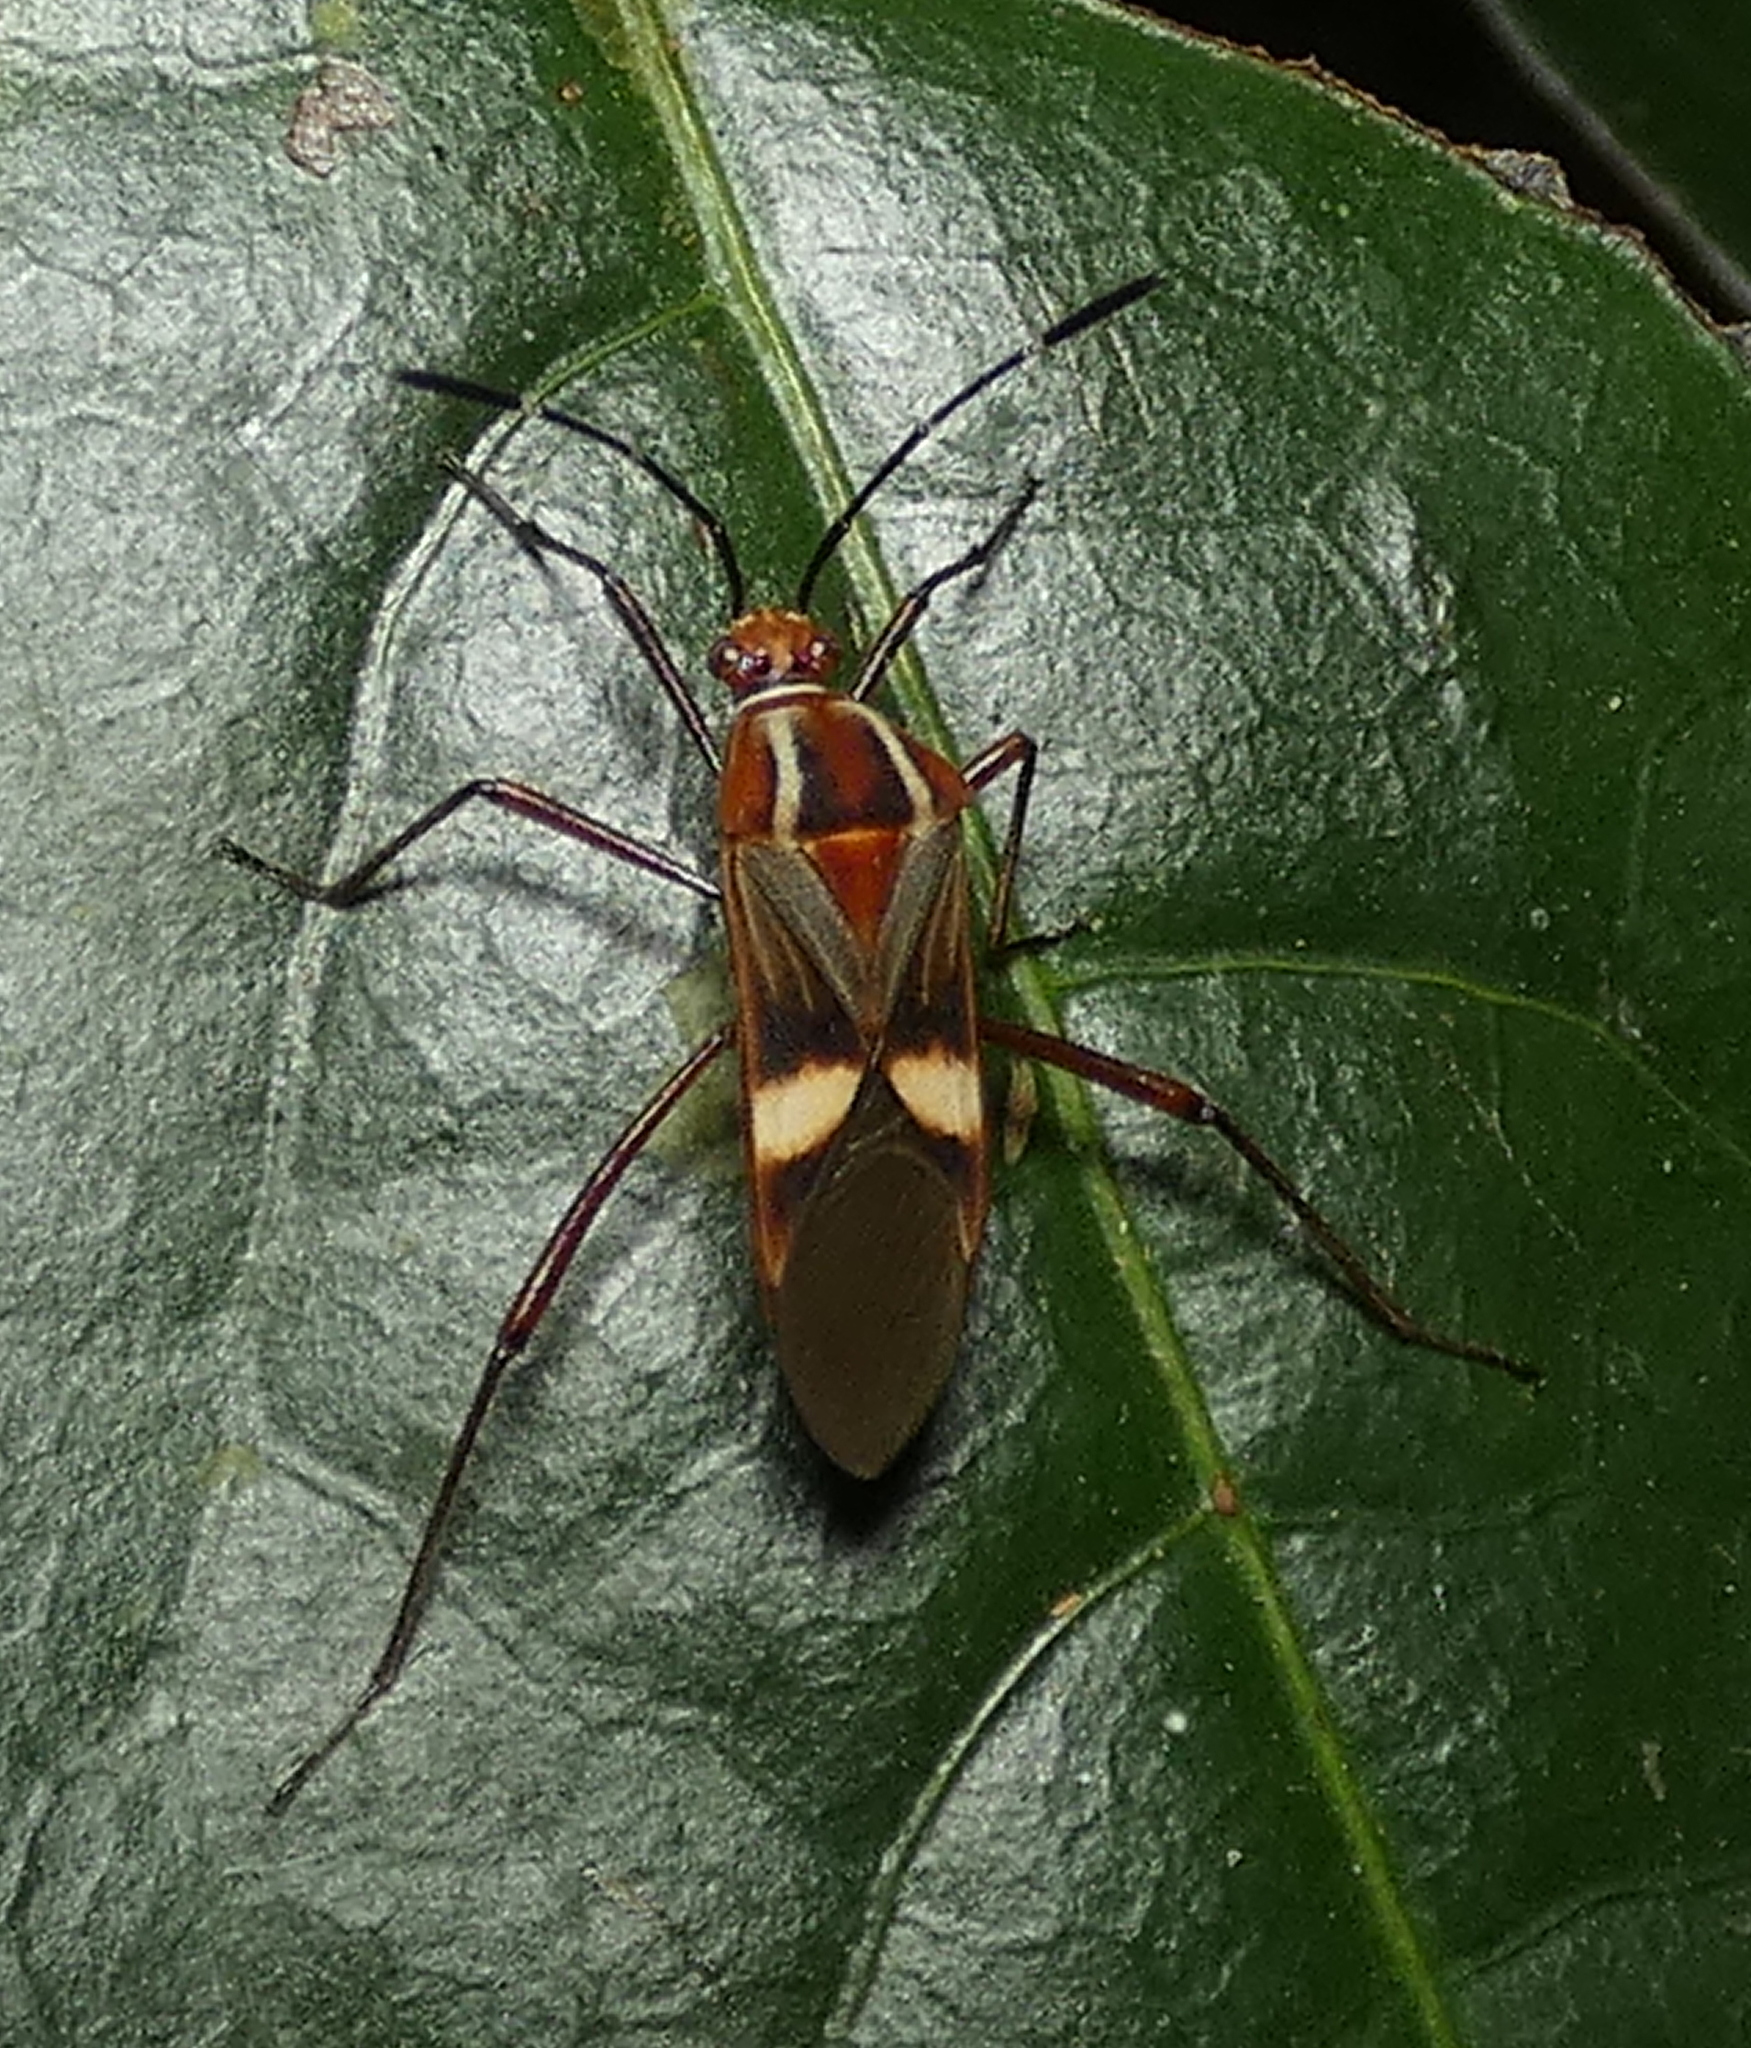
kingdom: Animalia
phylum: Arthropoda
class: Insecta
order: Hemiptera
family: Coreidae
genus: Hypselonotus
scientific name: Hypselonotus interruptus
